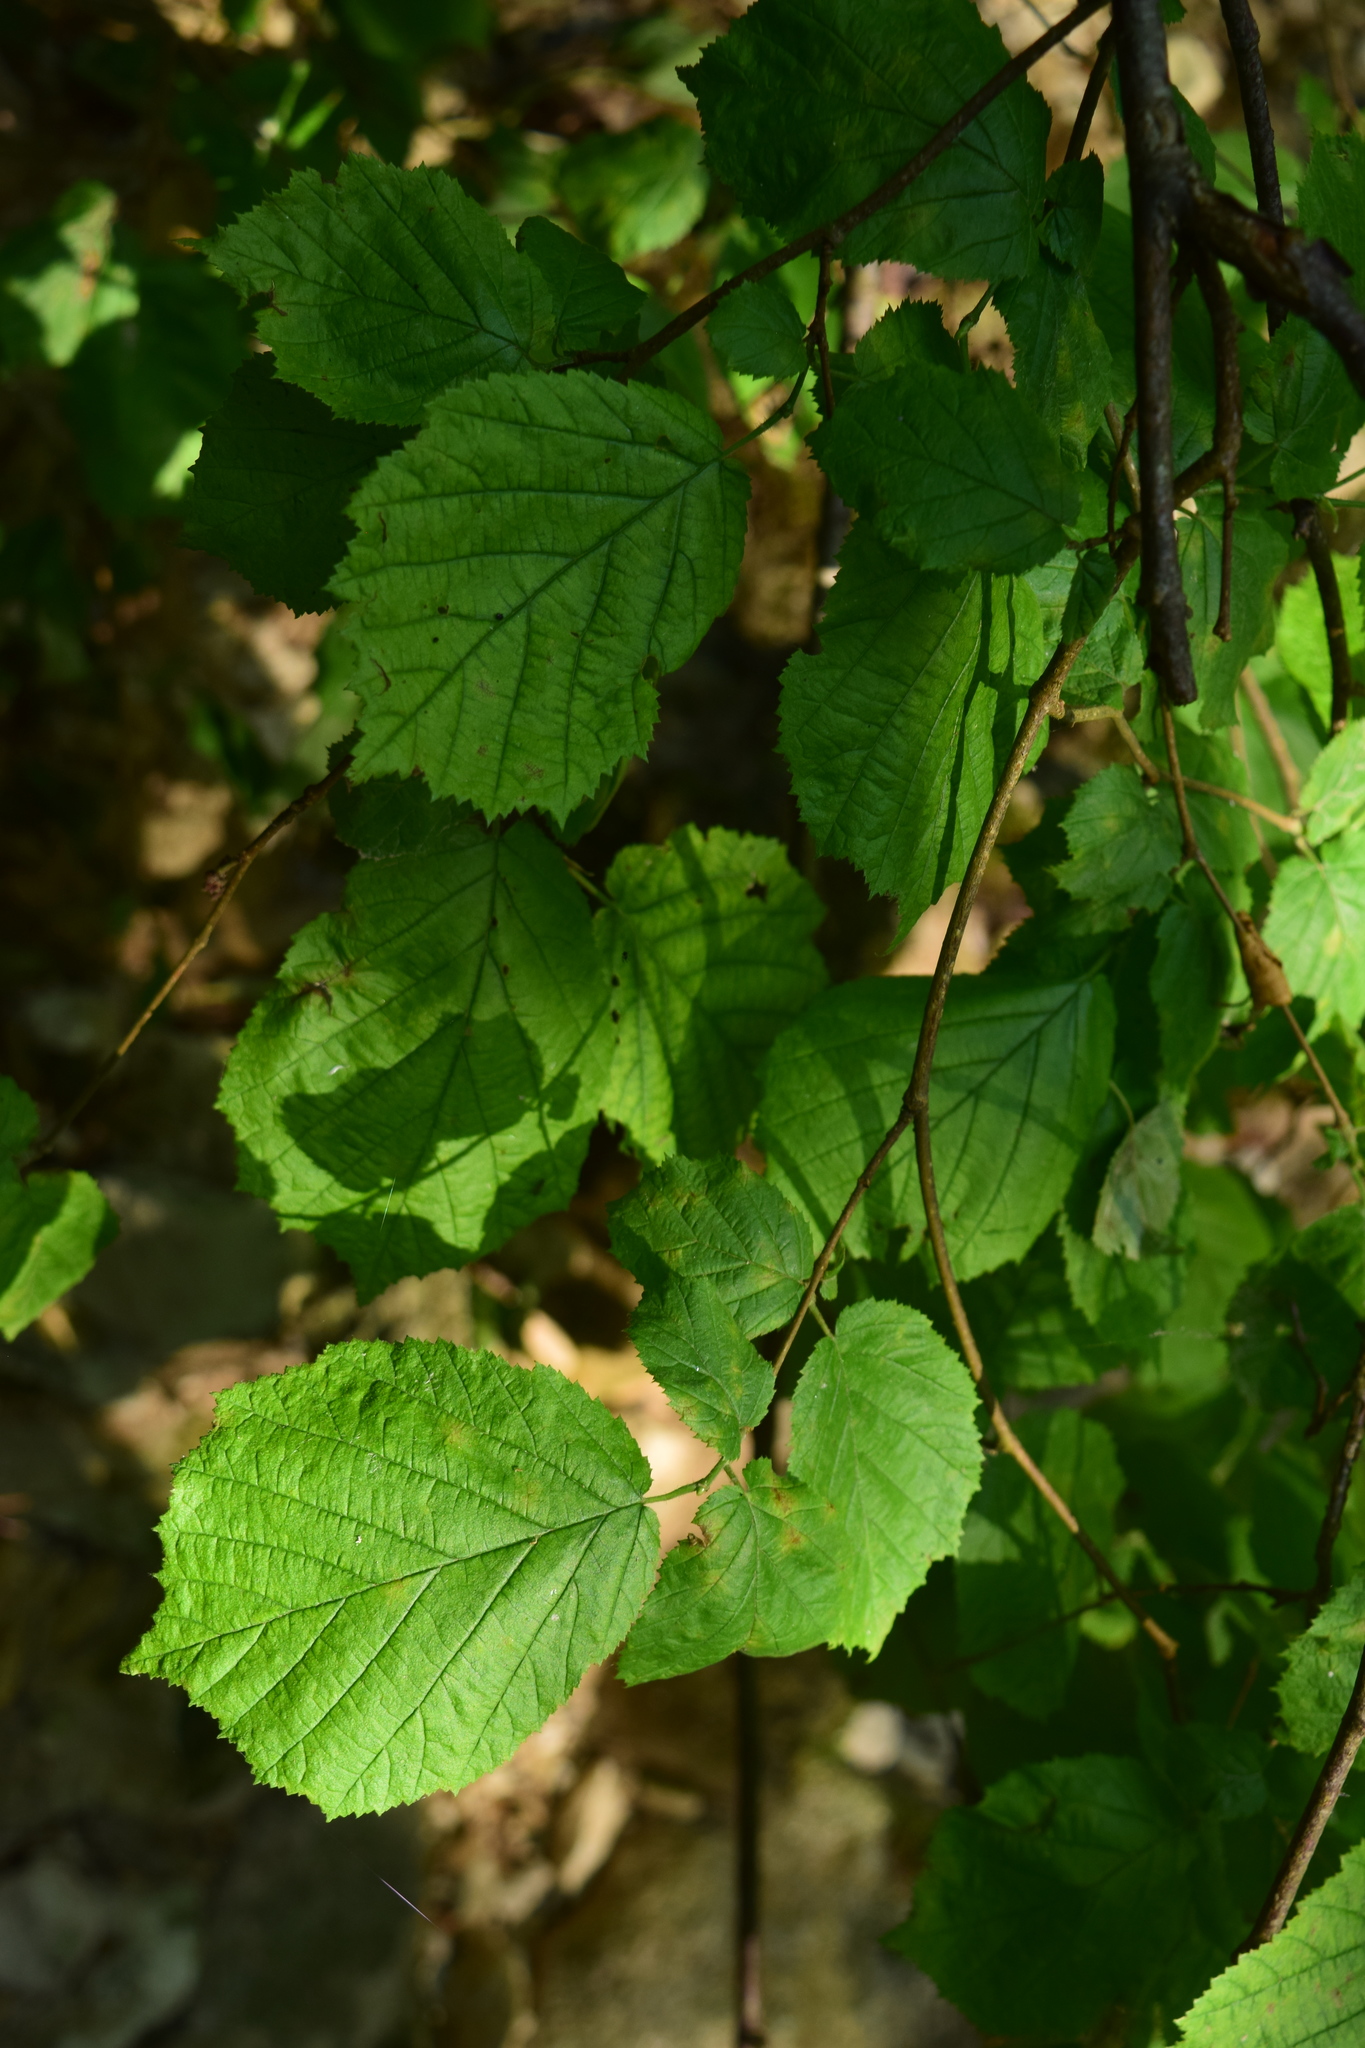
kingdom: Plantae
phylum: Tracheophyta
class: Magnoliopsida
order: Fagales
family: Betulaceae
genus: Corylus
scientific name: Corylus avellana
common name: European hazel
